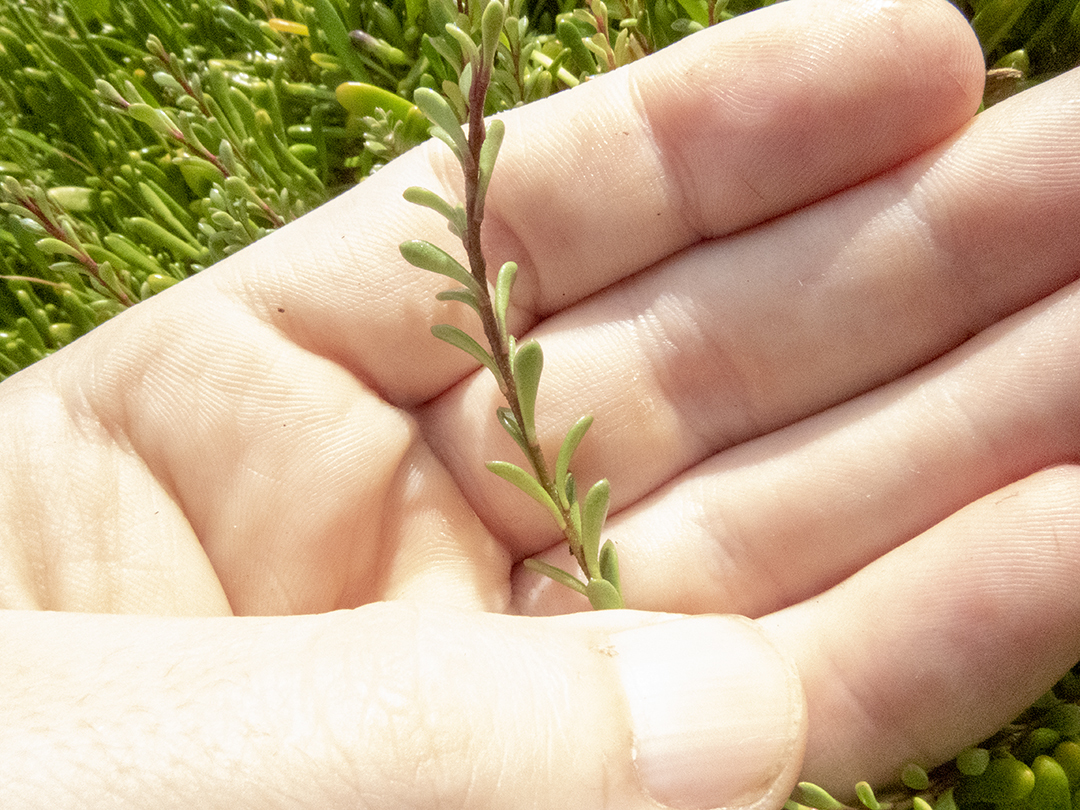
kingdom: Plantae
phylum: Tracheophyta
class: Magnoliopsida
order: Ericales
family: Primulaceae
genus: Samolus
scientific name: Samolus repens
